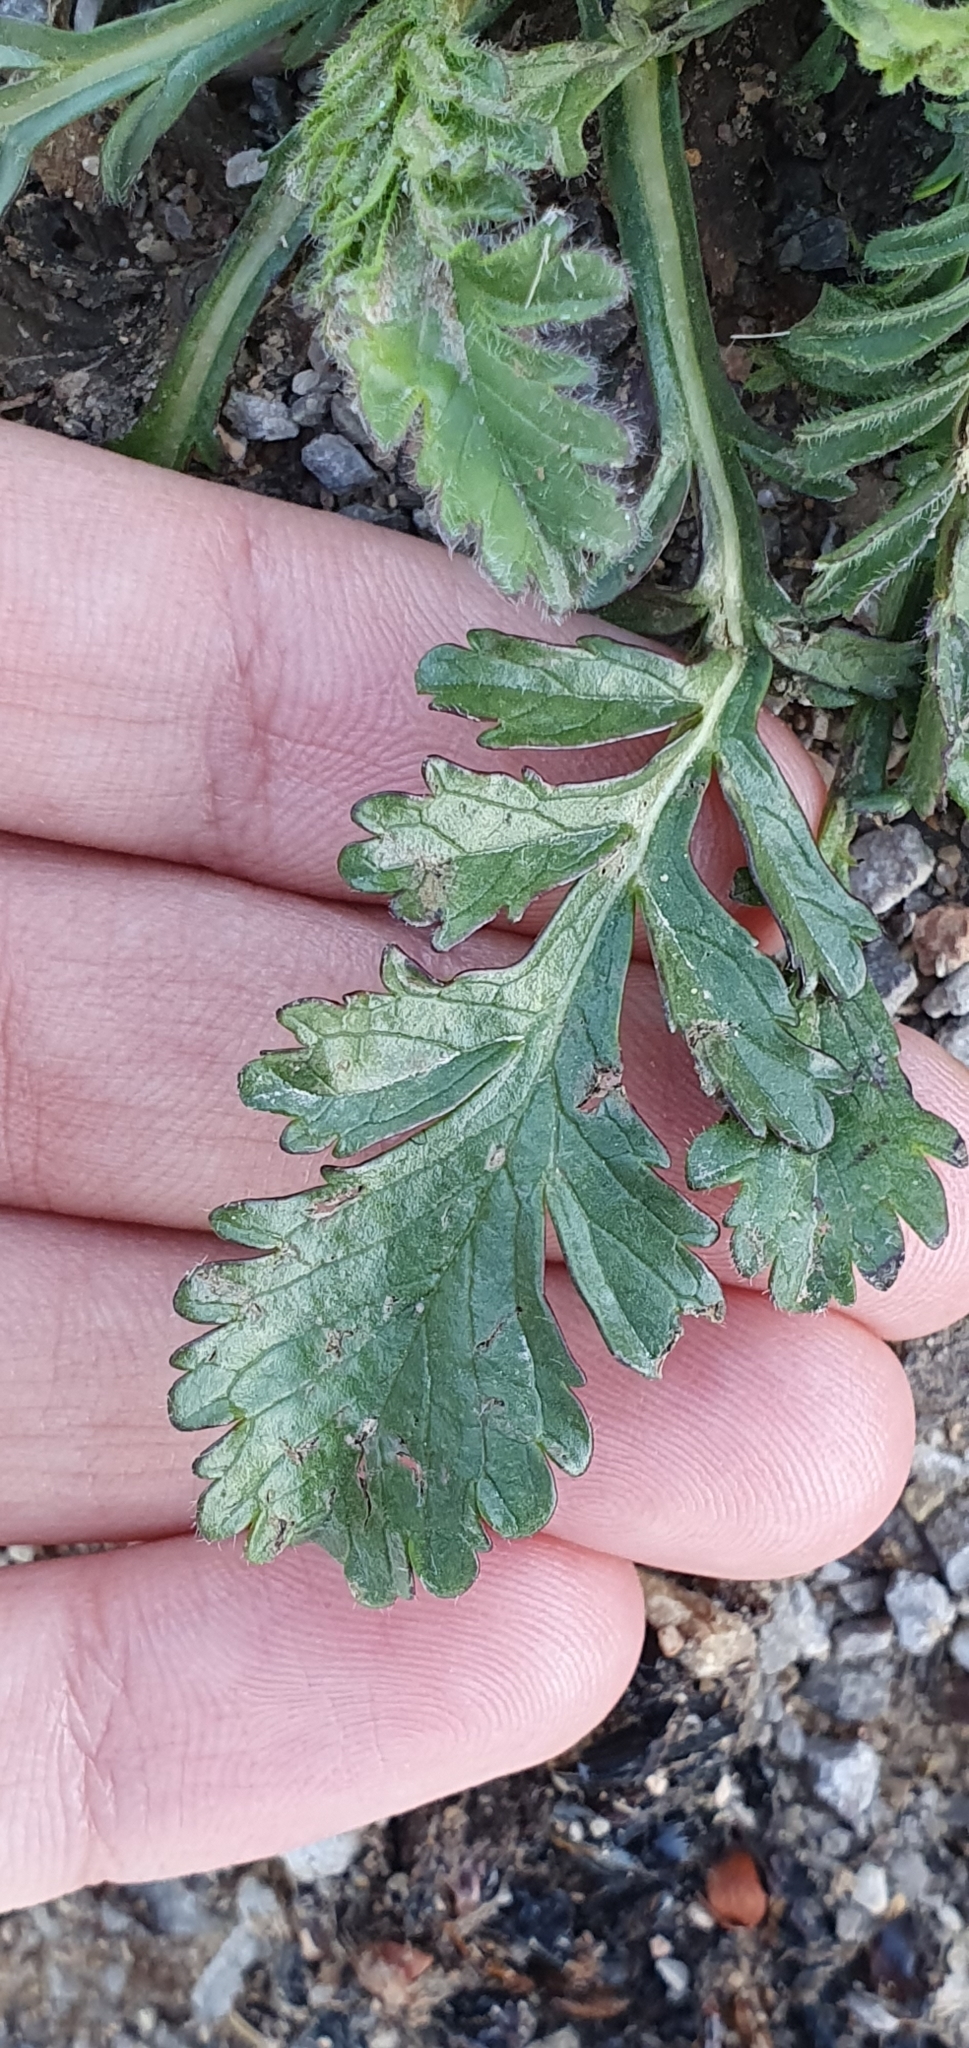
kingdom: Plantae
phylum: Tracheophyta
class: Magnoliopsida
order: Dipsacales
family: Caprifoliaceae
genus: Sixalix
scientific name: Sixalix maritima
